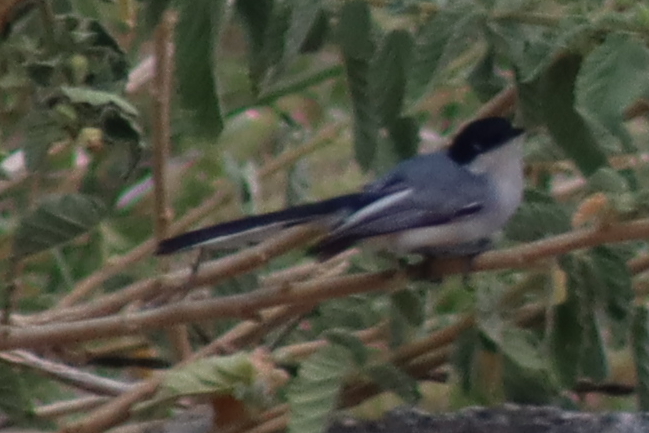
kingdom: Animalia
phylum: Chordata
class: Aves
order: Passeriformes
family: Polioptilidae
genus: Polioptila
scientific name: Polioptila plumbea
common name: Tropical gnatcatcher
